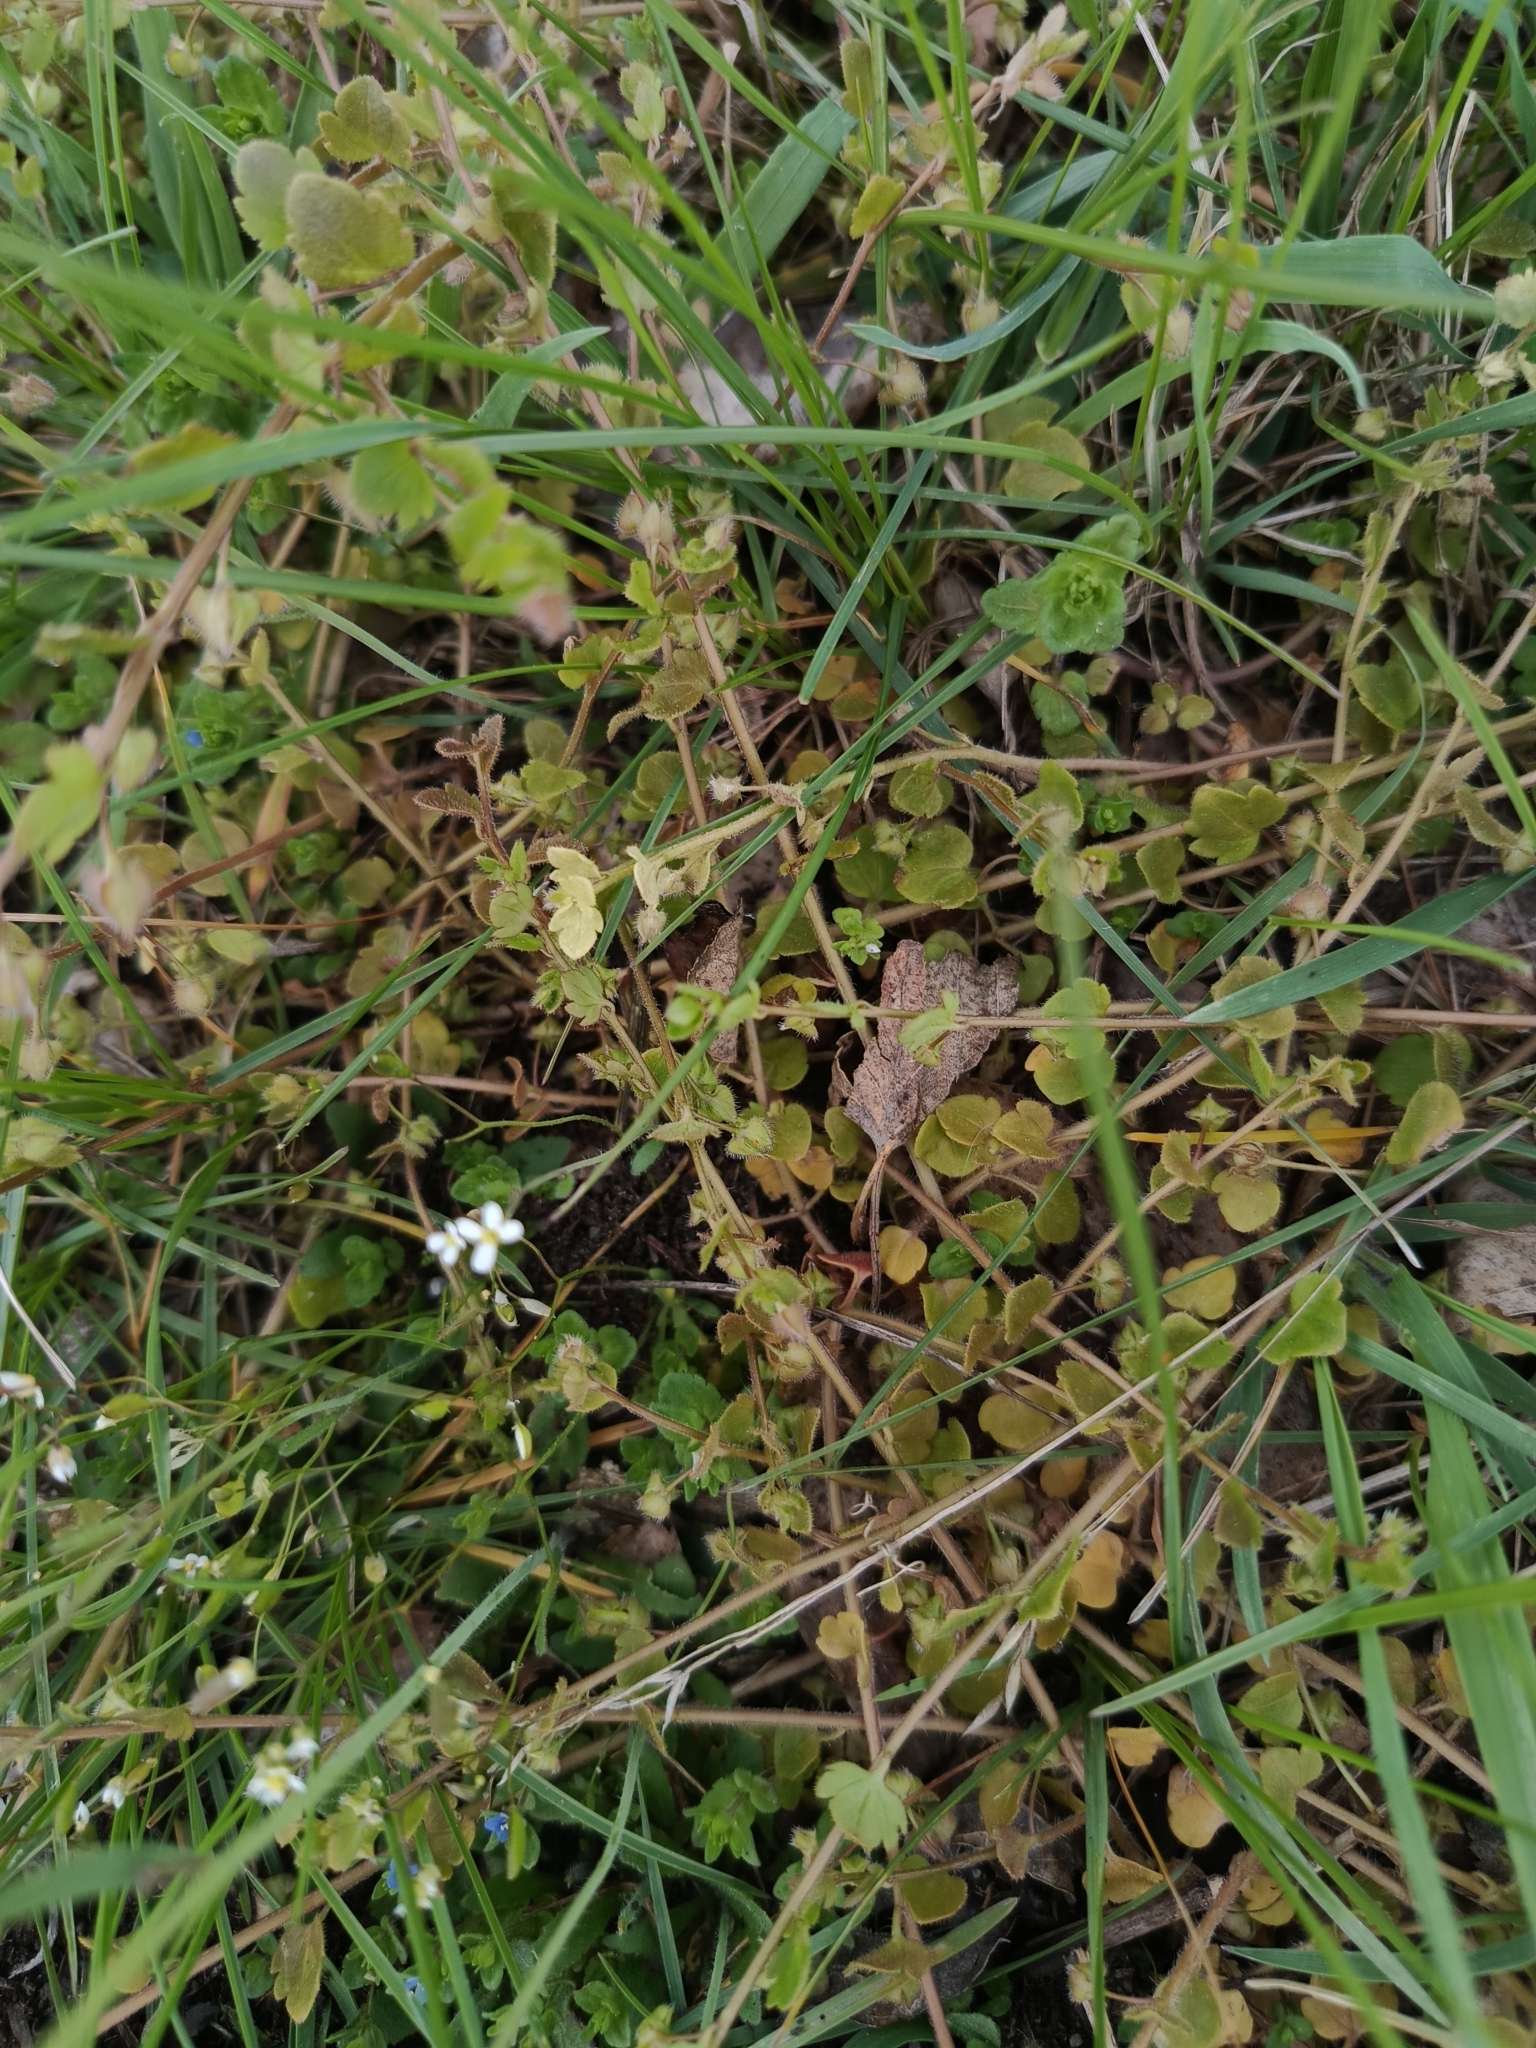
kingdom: Plantae
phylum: Tracheophyta
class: Magnoliopsida
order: Lamiales
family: Plantaginaceae
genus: Veronica
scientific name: Veronica sublobata
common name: False ivy-leaved speedwell
